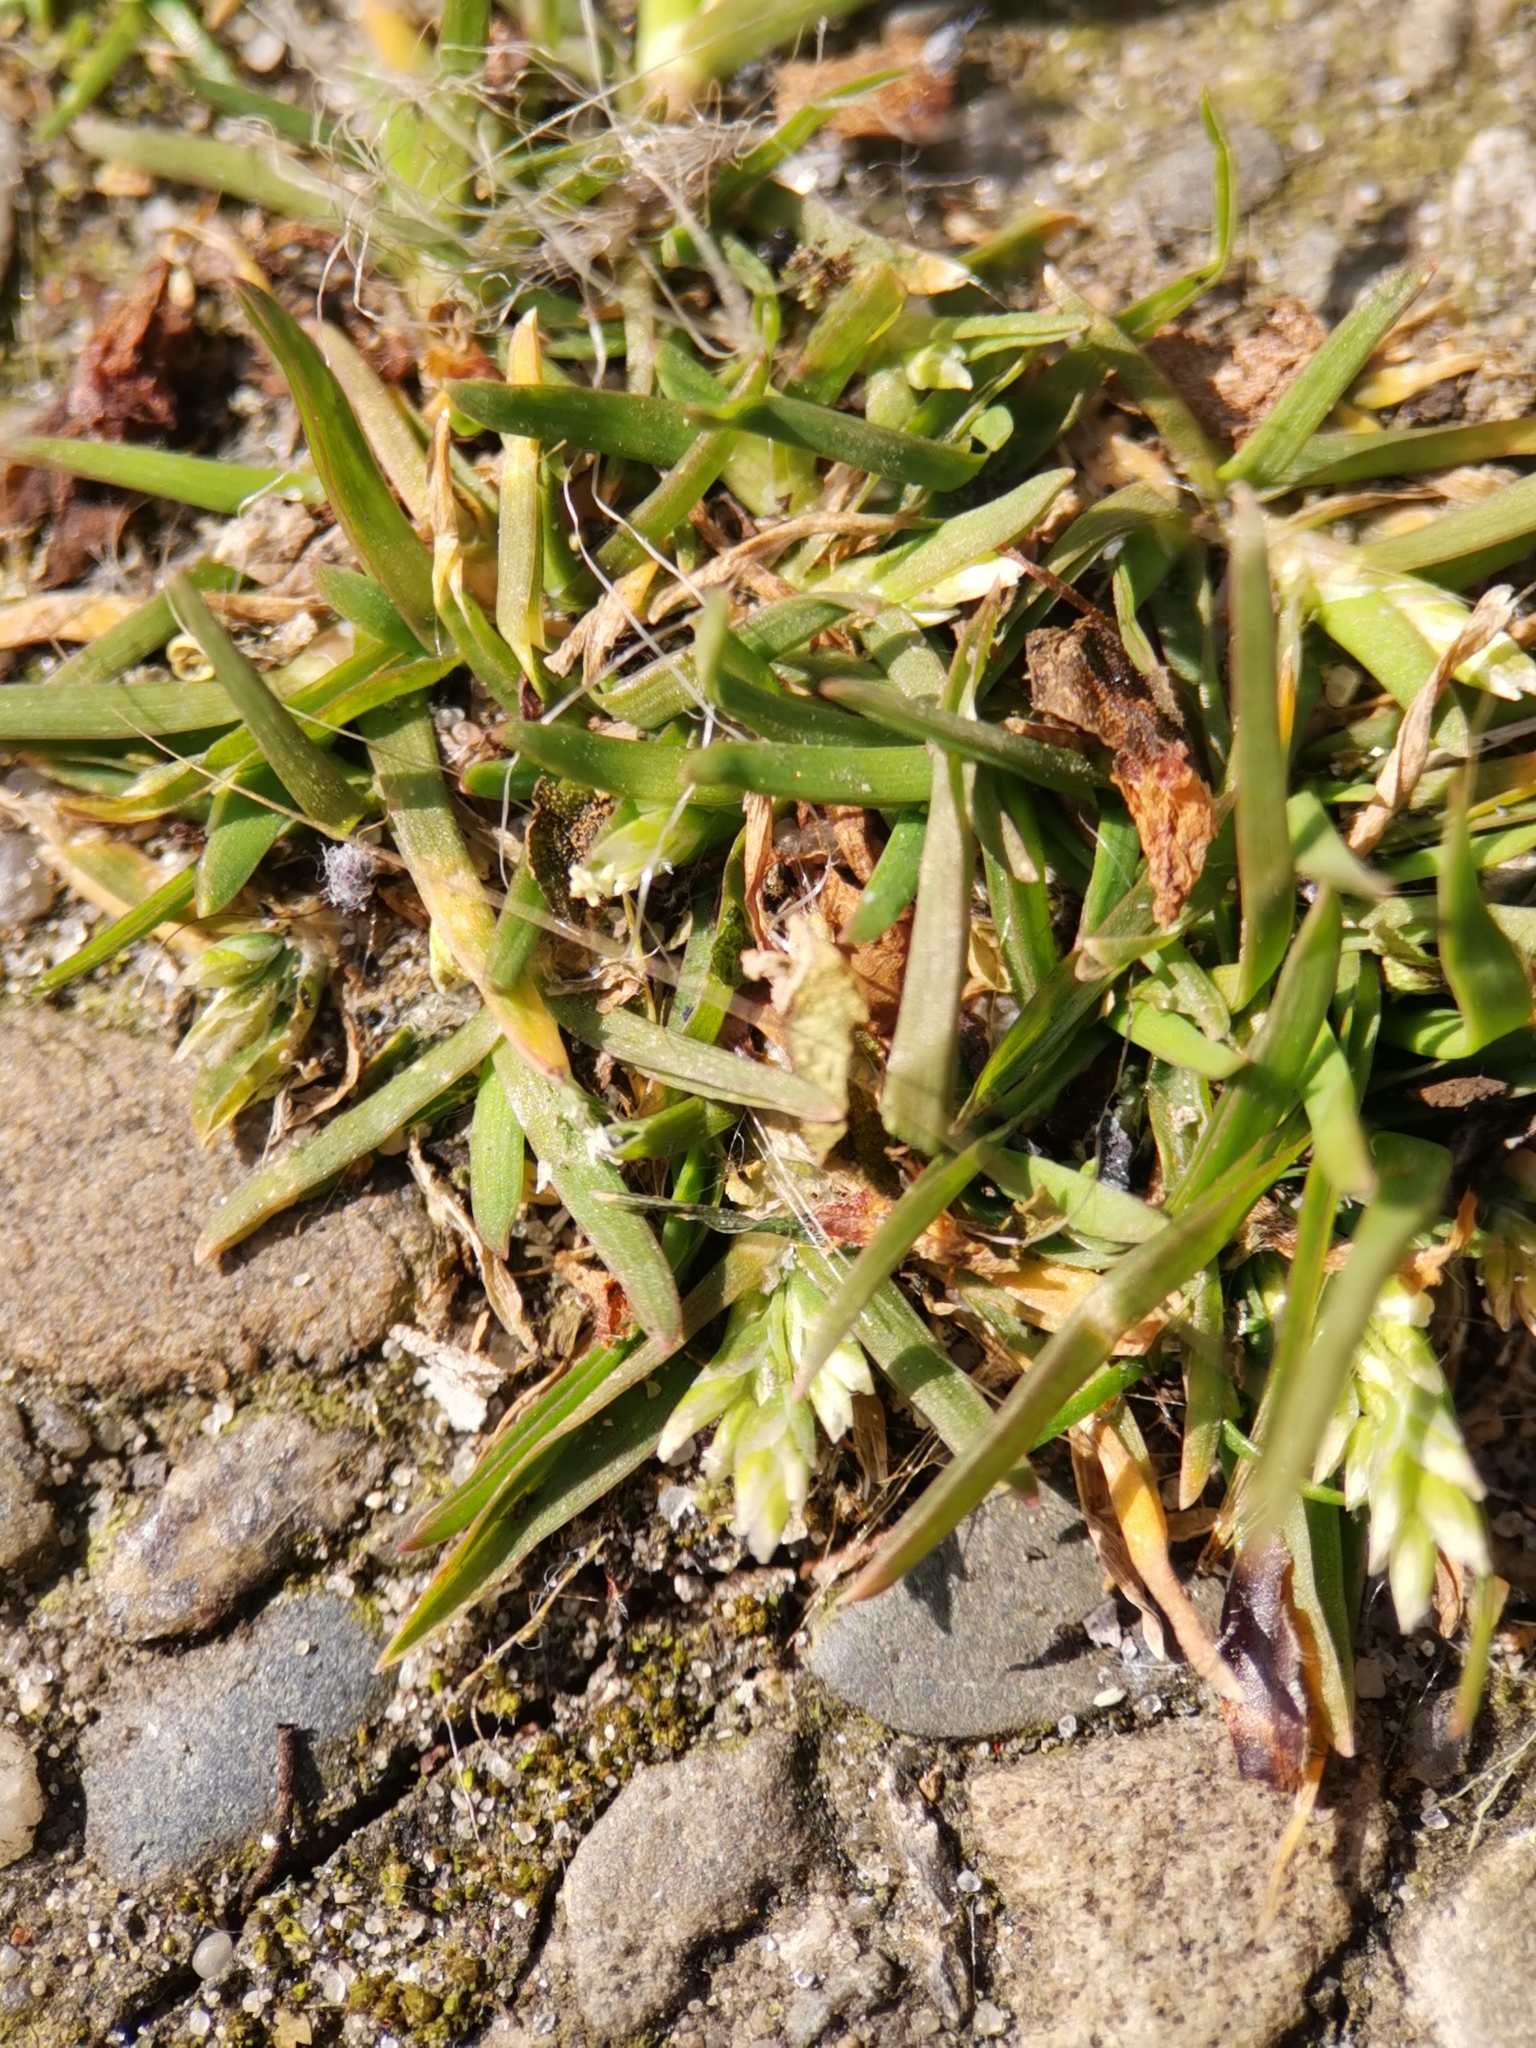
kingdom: Plantae
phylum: Tracheophyta
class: Liliopsida
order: Poales
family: Poaceae
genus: Poa
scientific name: Poa annua
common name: Annual bluegrass
